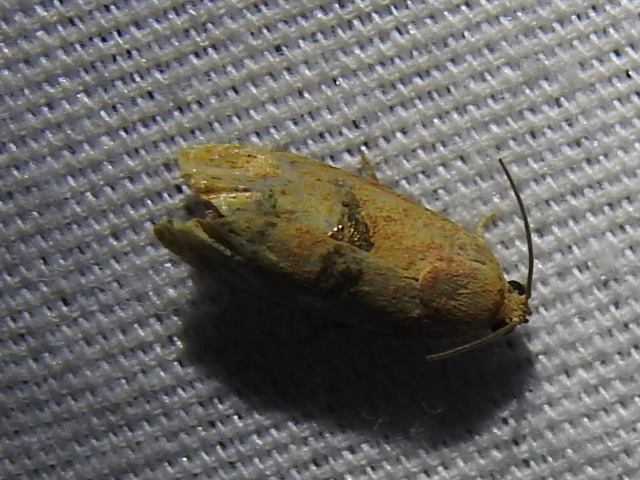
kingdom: Animalia
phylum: Arthropoda
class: Insecta
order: Lepidoptera
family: Tortricidae
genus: Cydia
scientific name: Cydia latiferreana
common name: Filbertworm moth
